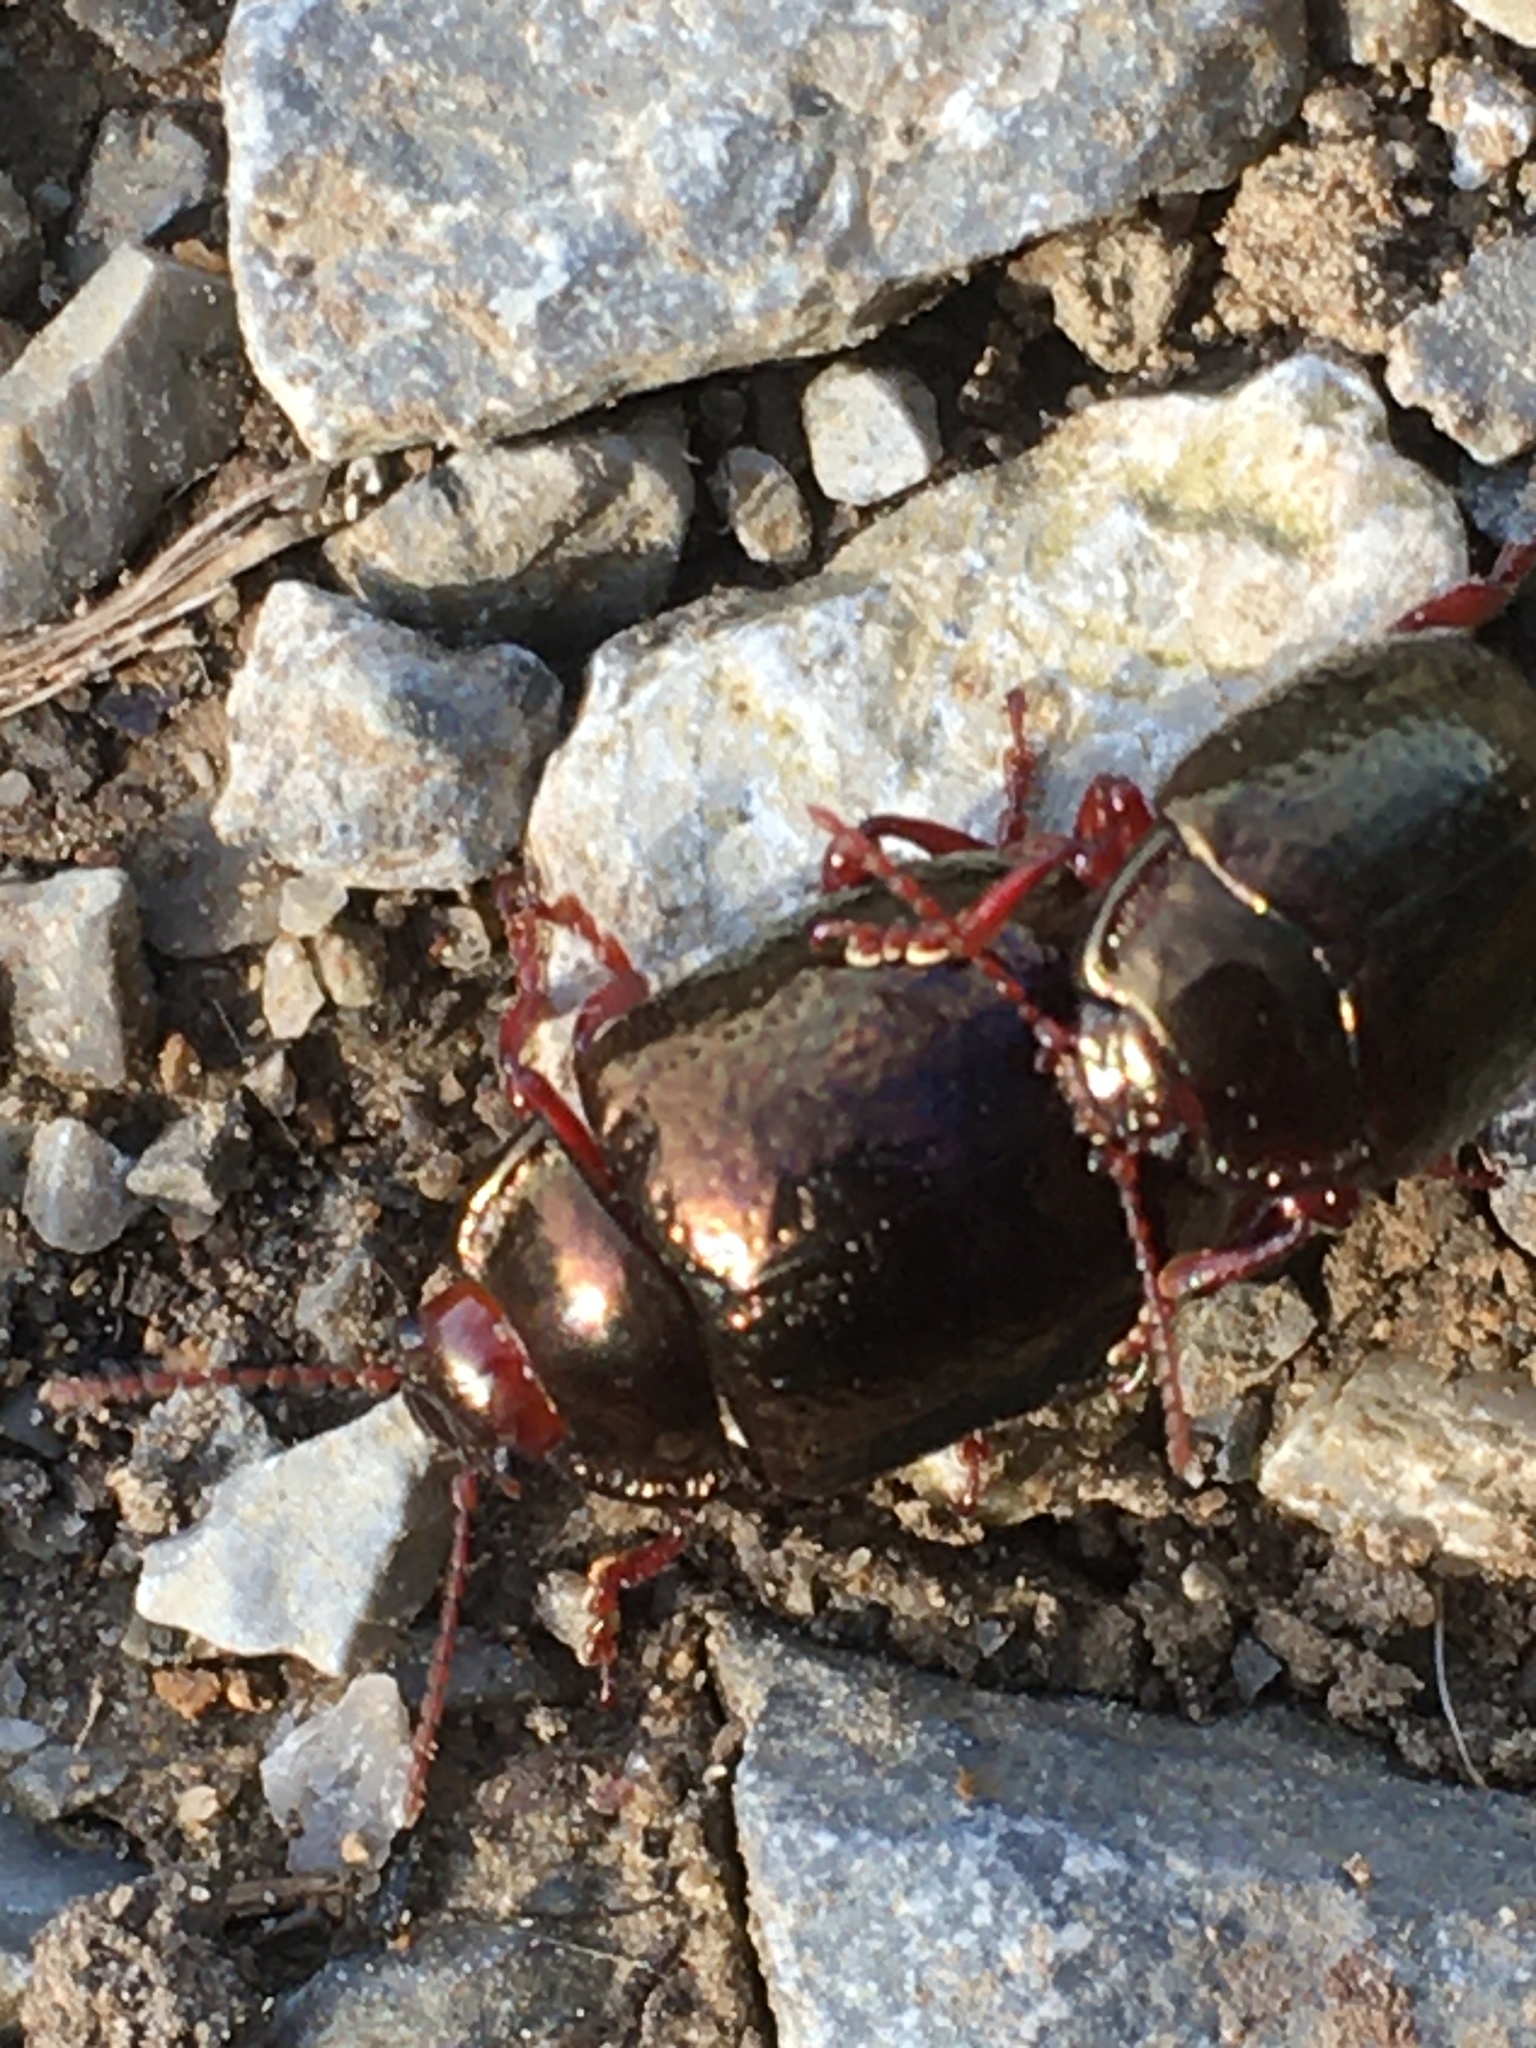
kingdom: Animalia
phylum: Arthropoda
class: Insecta
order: Coleoptera
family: Chrysomelidae
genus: Chrysolina
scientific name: Chrysolina bankii
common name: Leaf beetle
